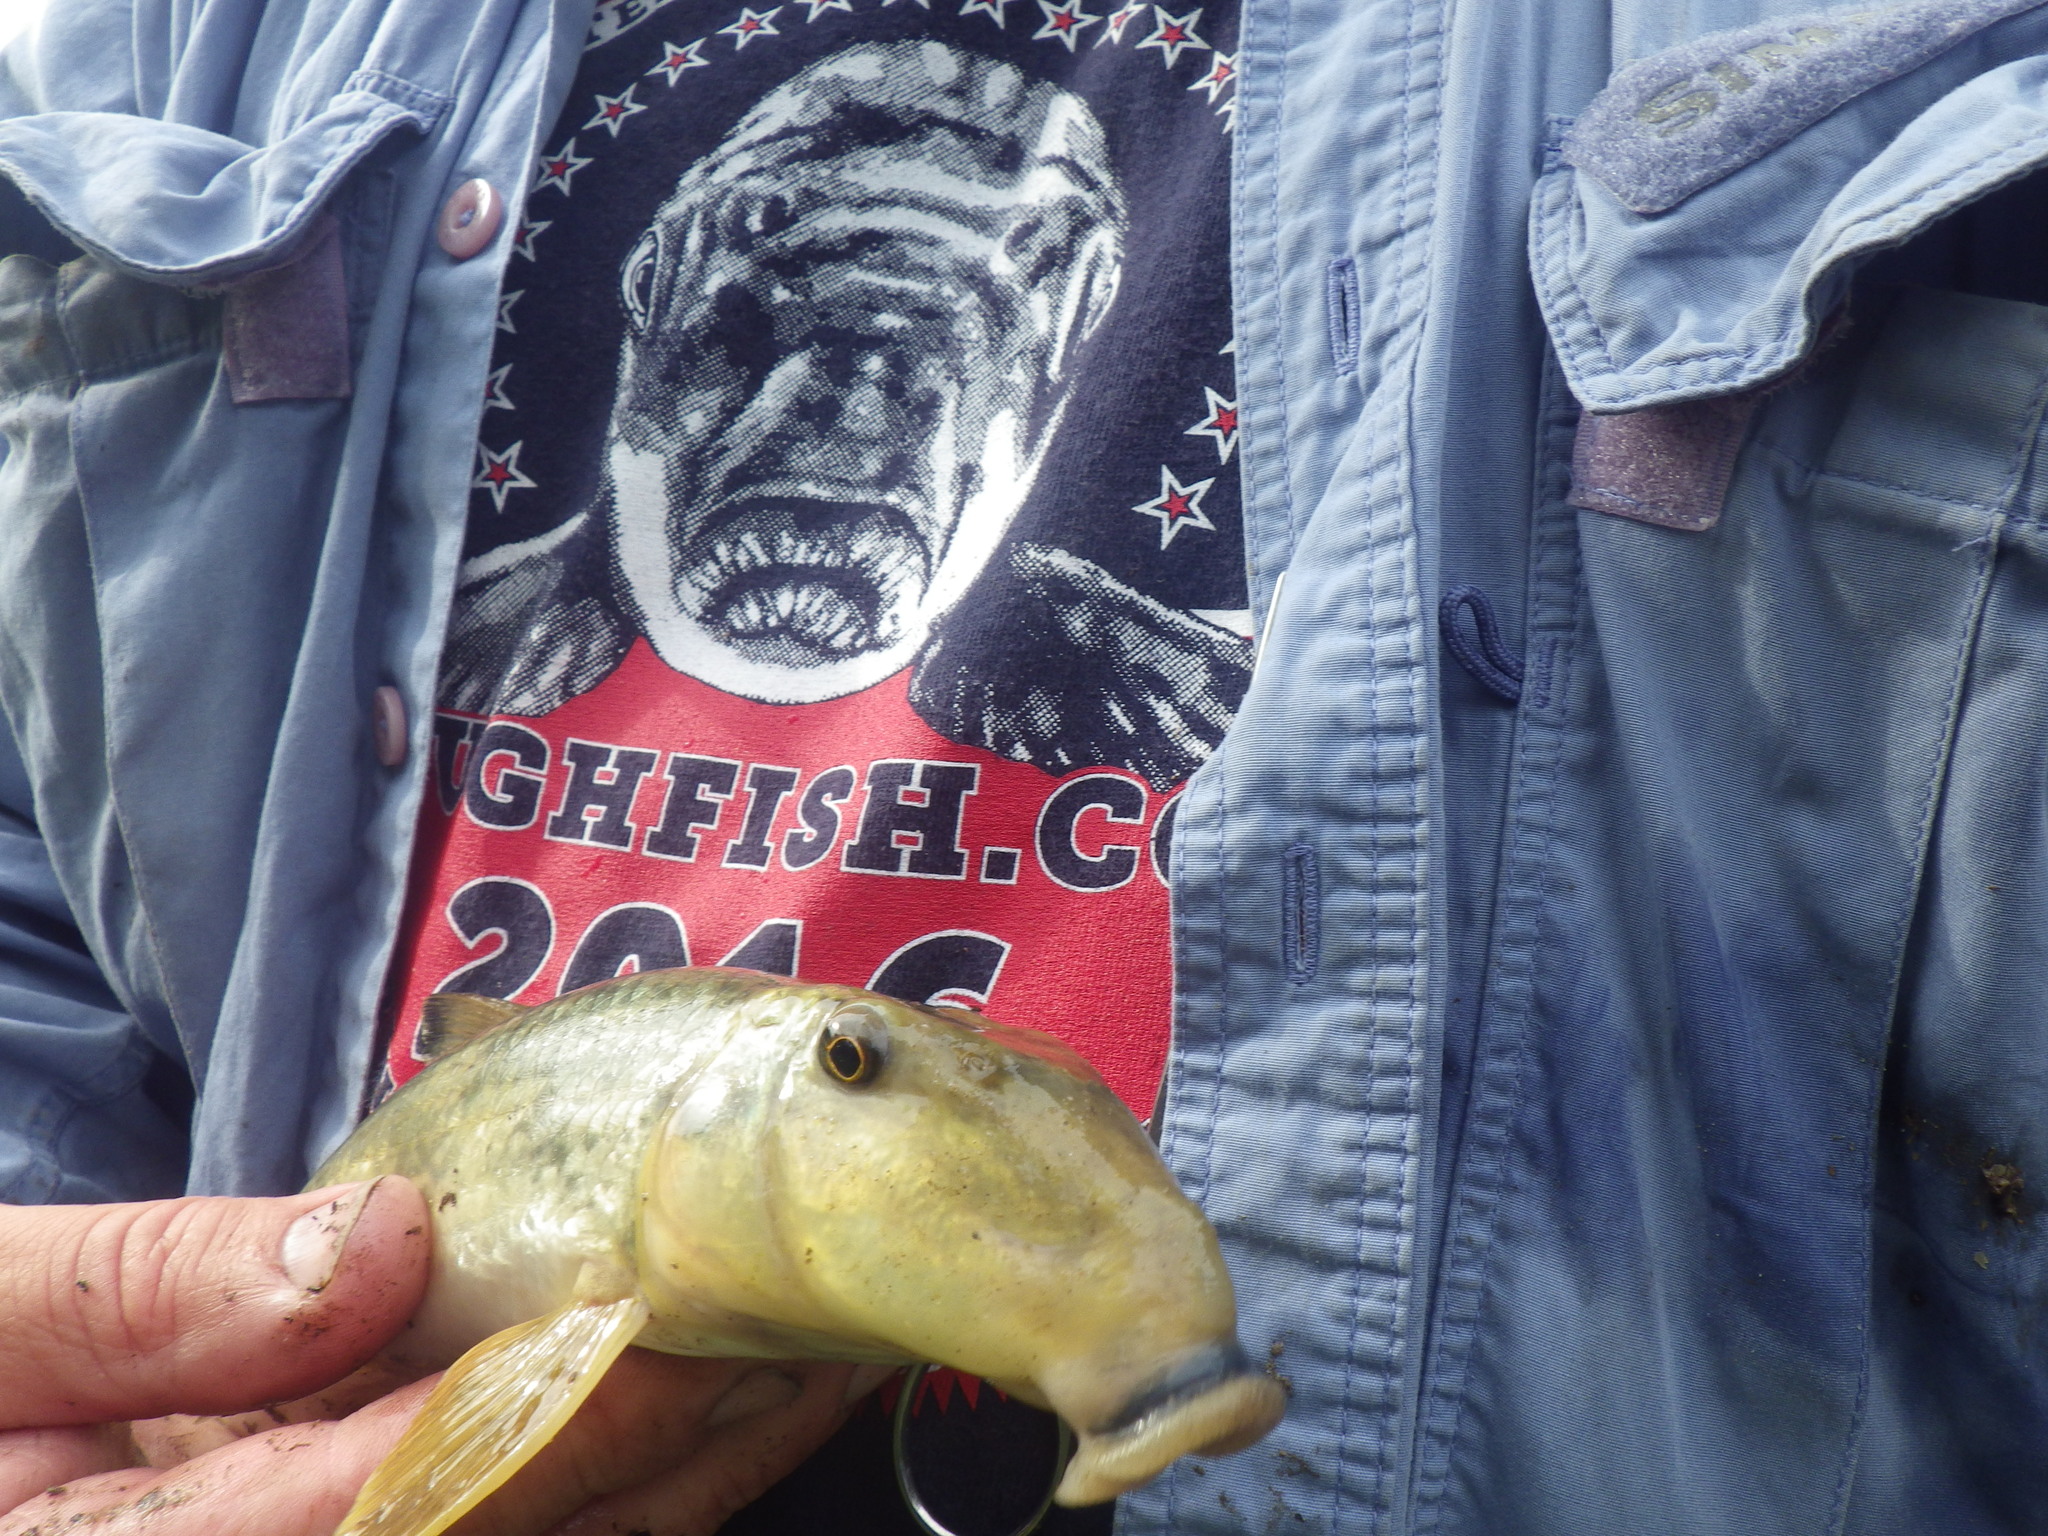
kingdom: Animalia
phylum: Chordata
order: Cypriniformes
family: Catostomidae
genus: Hypentelium
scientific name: Hypentelium nigricans
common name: Northern hog sucker
